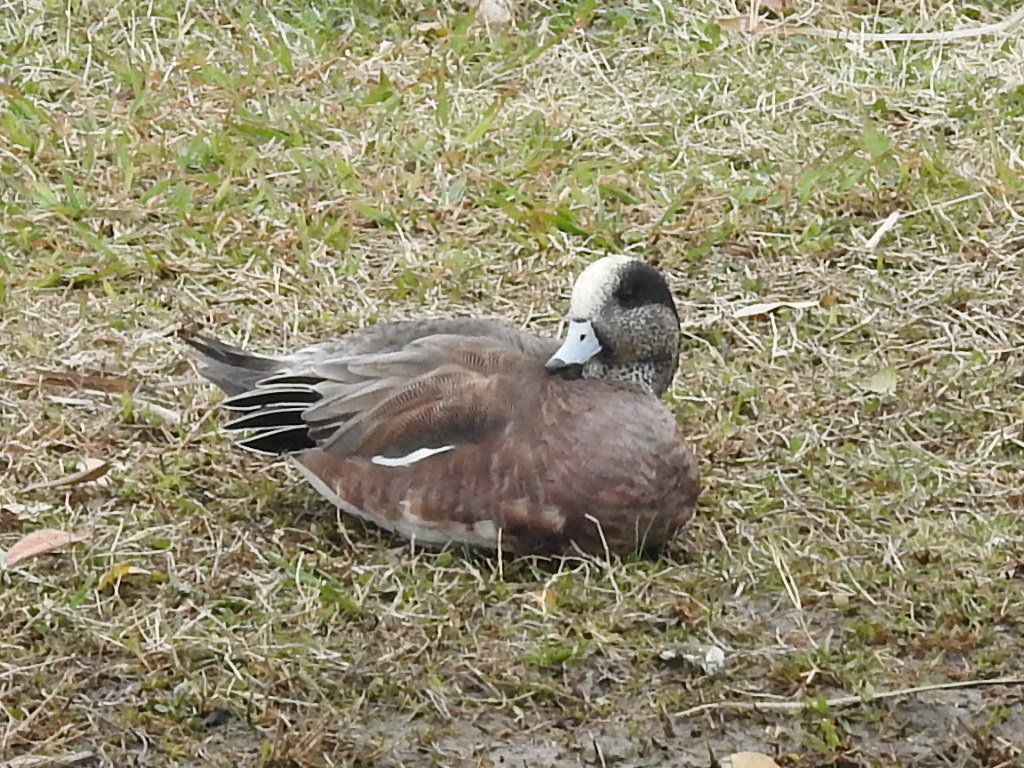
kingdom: Animalia
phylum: Chordata
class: Aves
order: Anseriformes
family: Anatidae
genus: Mareca
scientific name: Mareca americana
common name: American wigeon
